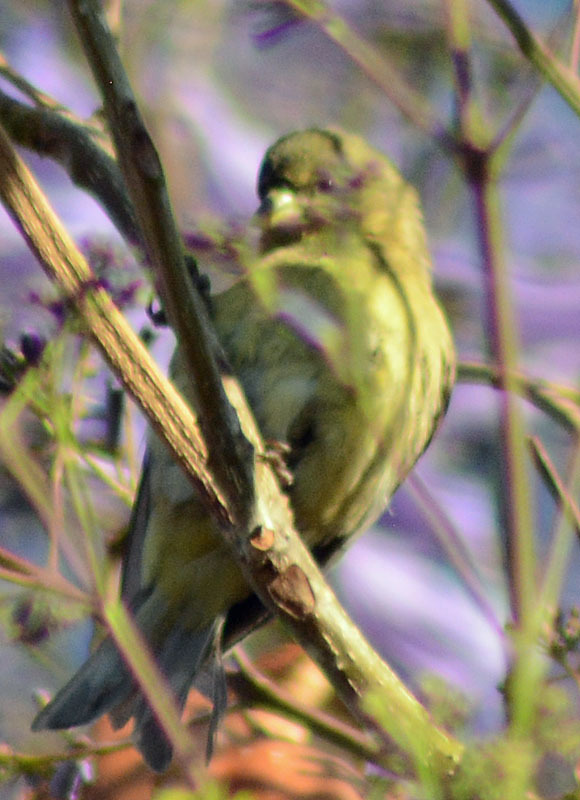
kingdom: Animalia
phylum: Chordata
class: Aves
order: Passeriformes
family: Fringillidae
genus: Spinus
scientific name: Spinus psaltria
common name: Lesser goldfinch
